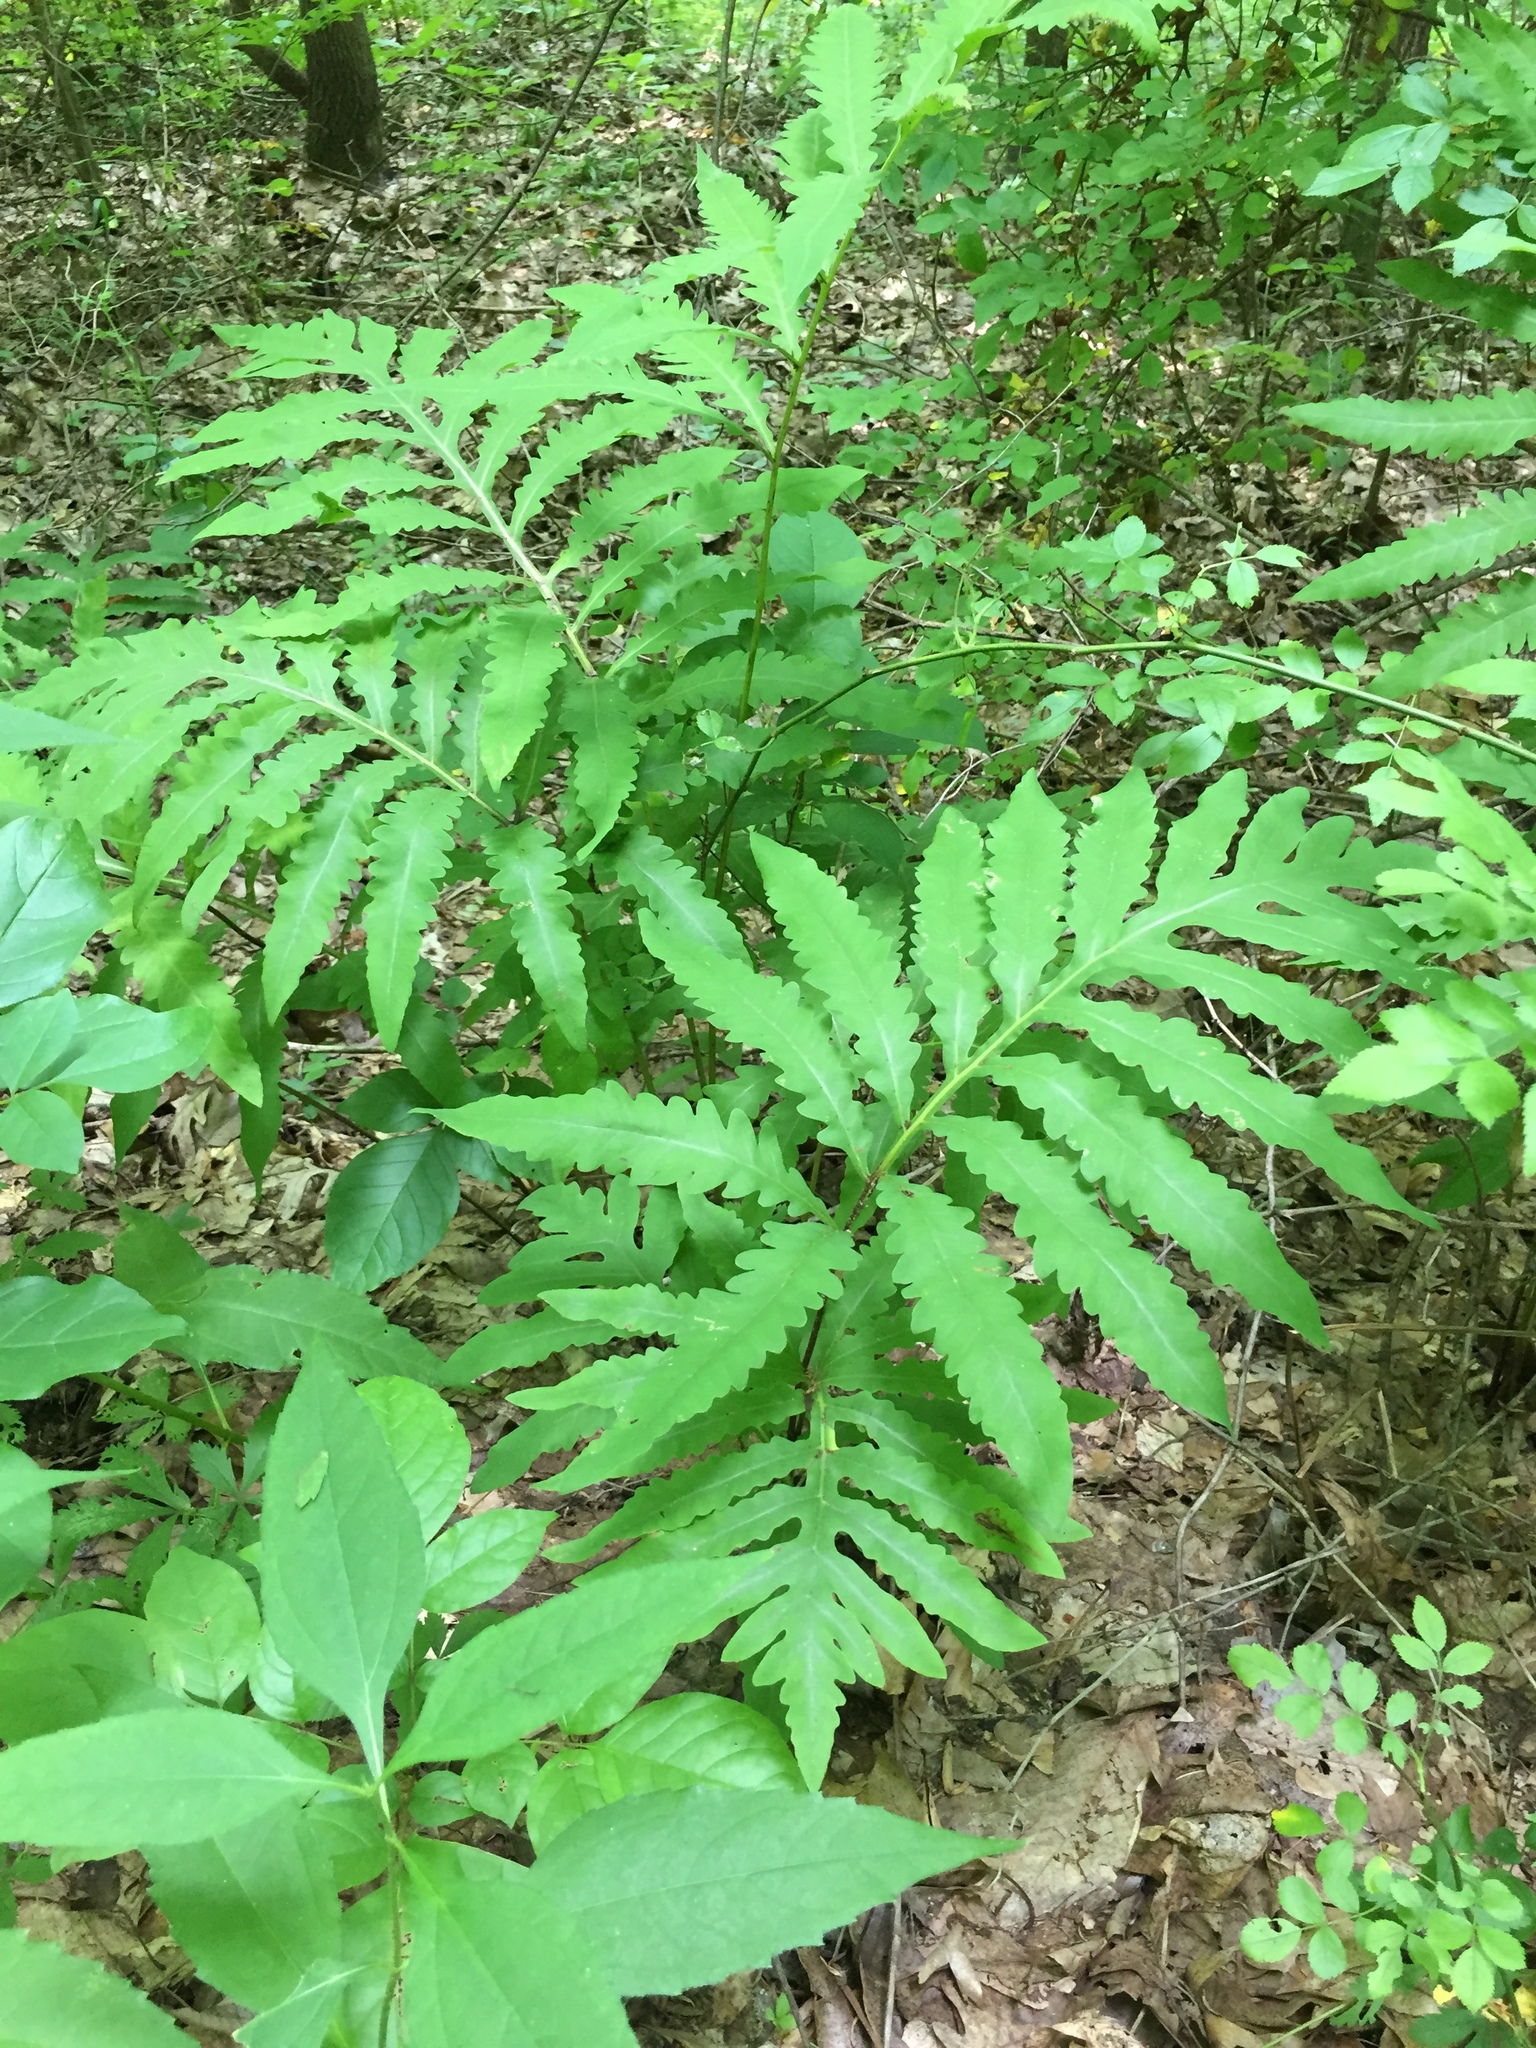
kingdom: Plantae
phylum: Tracheophyta
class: Polypodiopsida
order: Polypodiales
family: Onocleaceae
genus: Onoclea
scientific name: Onoclea sensibilis
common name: Sensitive fern
